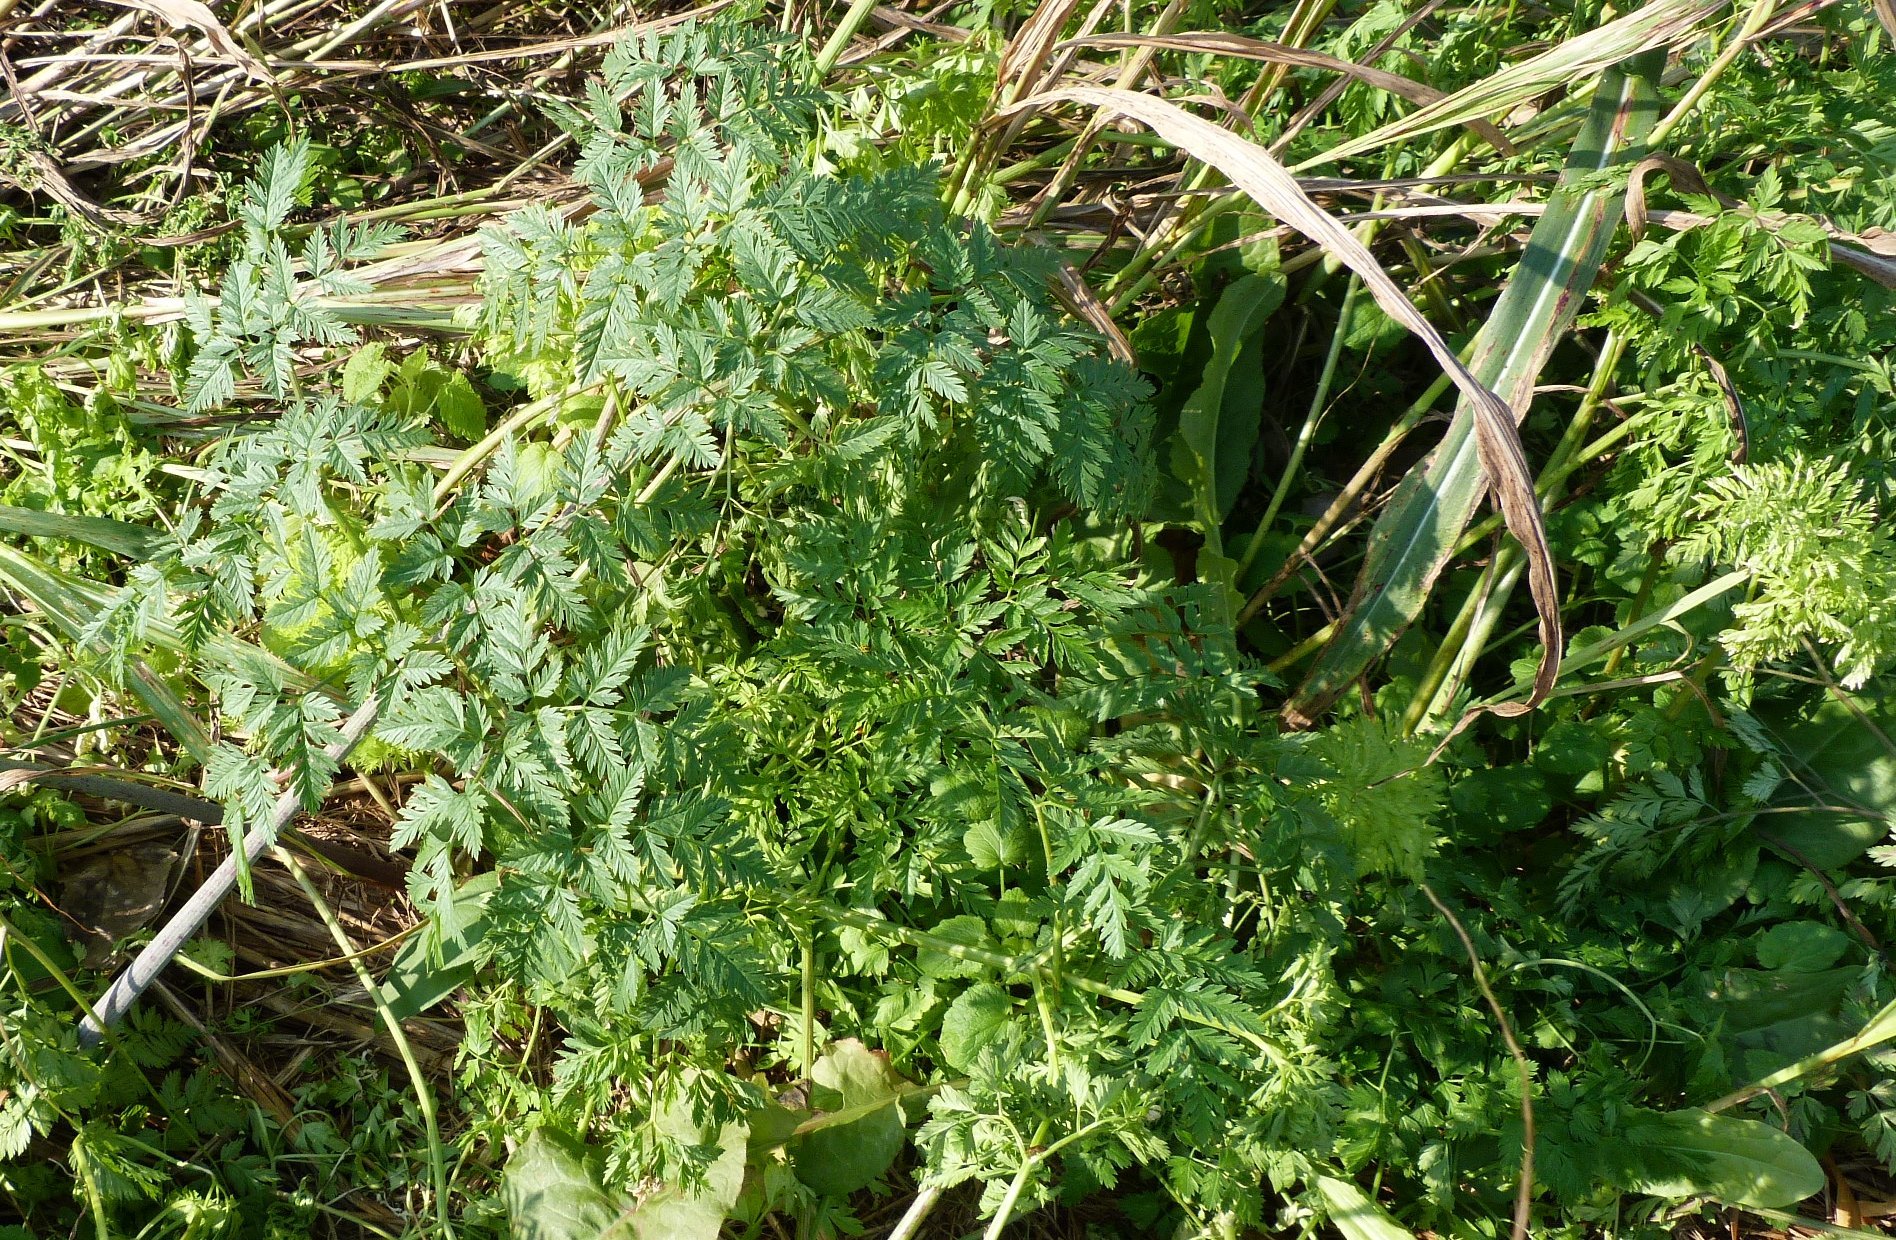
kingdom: Plantae
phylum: Tracheophyta
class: Magnoliopsida
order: Apiales
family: Apiaceae
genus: Conium
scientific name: Conium maculatum
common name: Hemlock
